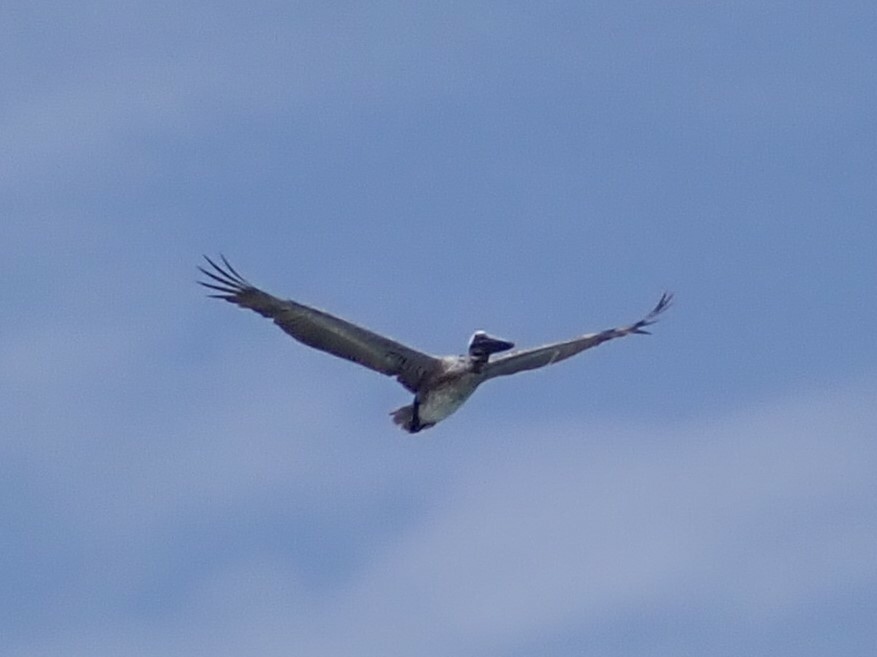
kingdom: Animalia
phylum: Chordata
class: Aves
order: Pelecaniformes
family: Pelecanidae
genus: Pelecanus
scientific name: Pelecanus occidentalis
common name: Brown pelican
